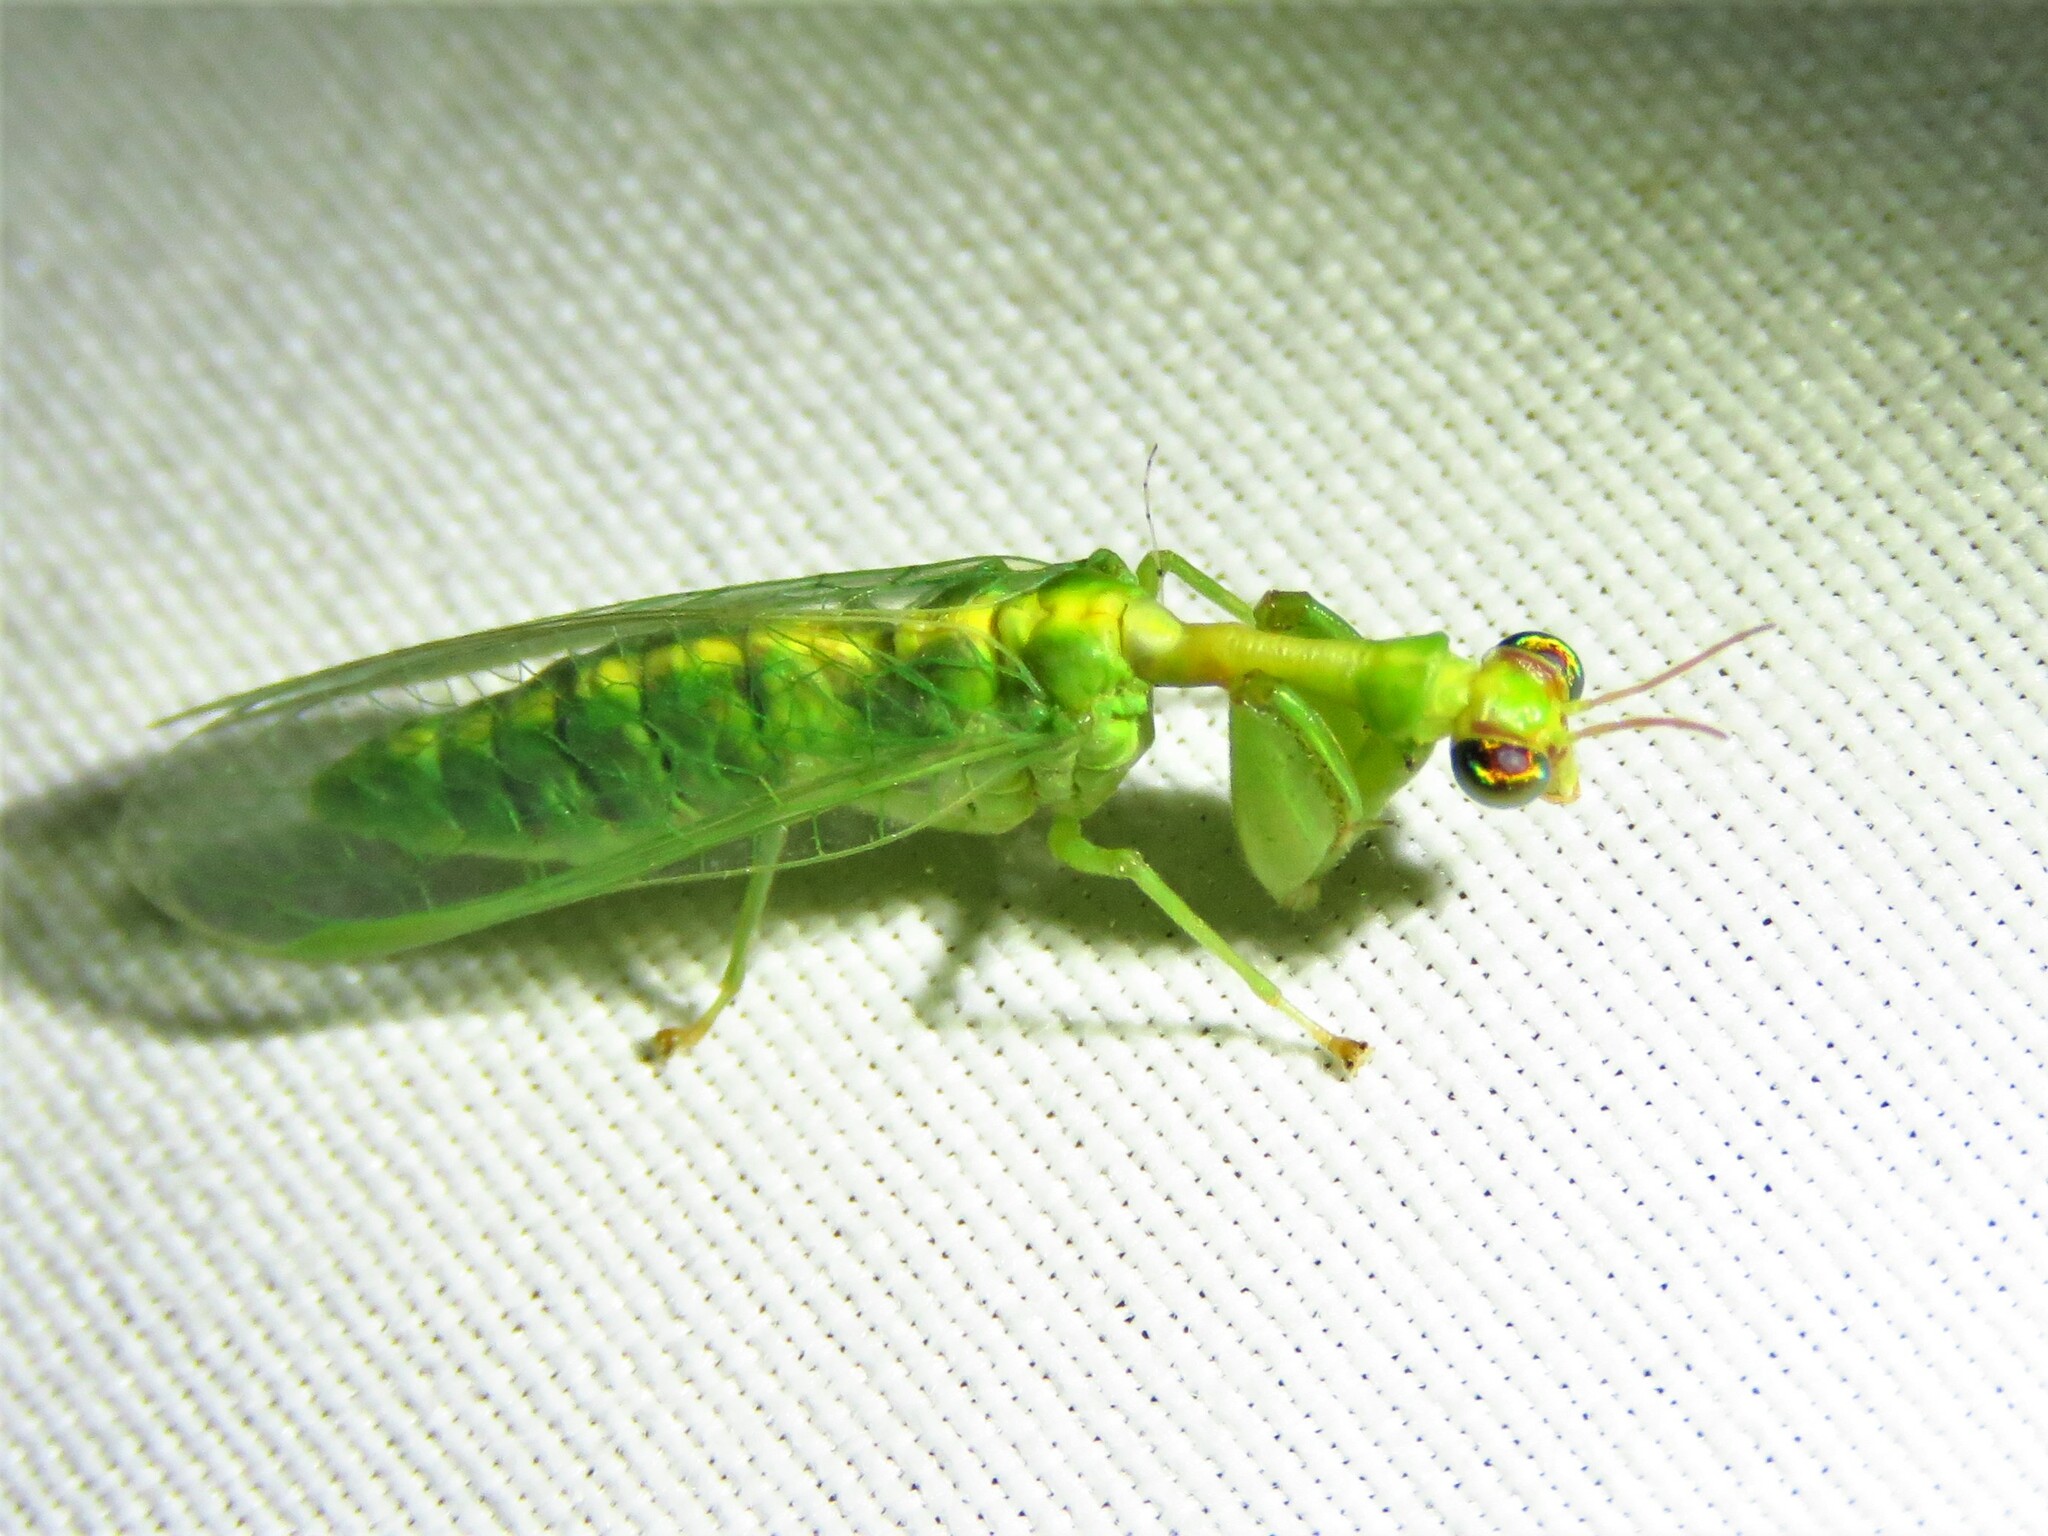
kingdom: Animalia
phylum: Arthropoda
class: Insecta
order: Neuroptera
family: Mantispidae
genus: Zeugomantispa
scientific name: Zeugomantispa minuta
